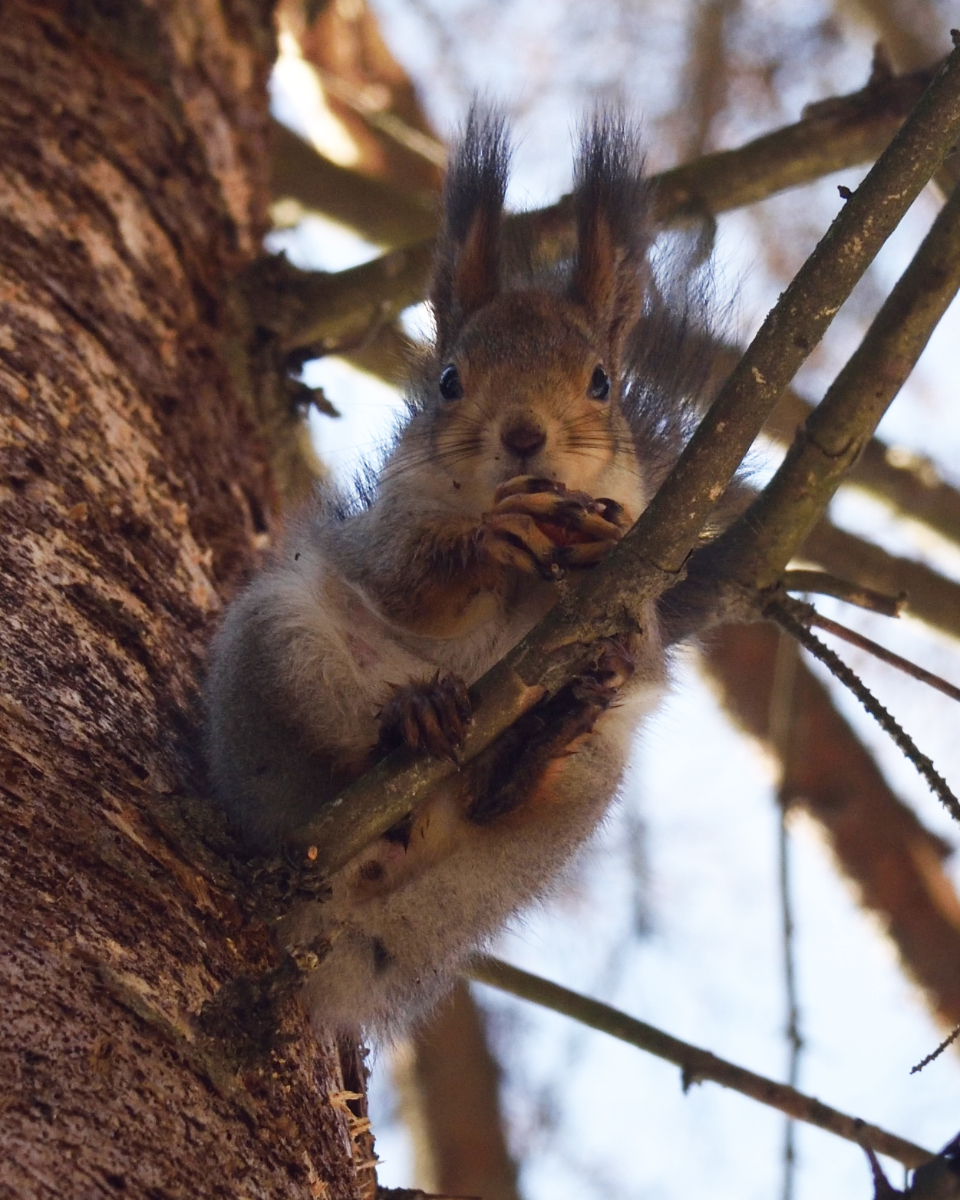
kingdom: Animalia
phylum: Chordata
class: Mammalia
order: Rodentia
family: Sciuridae
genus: Sciurus
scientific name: Sciurus vulgaris
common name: Eurasian red squirrel
